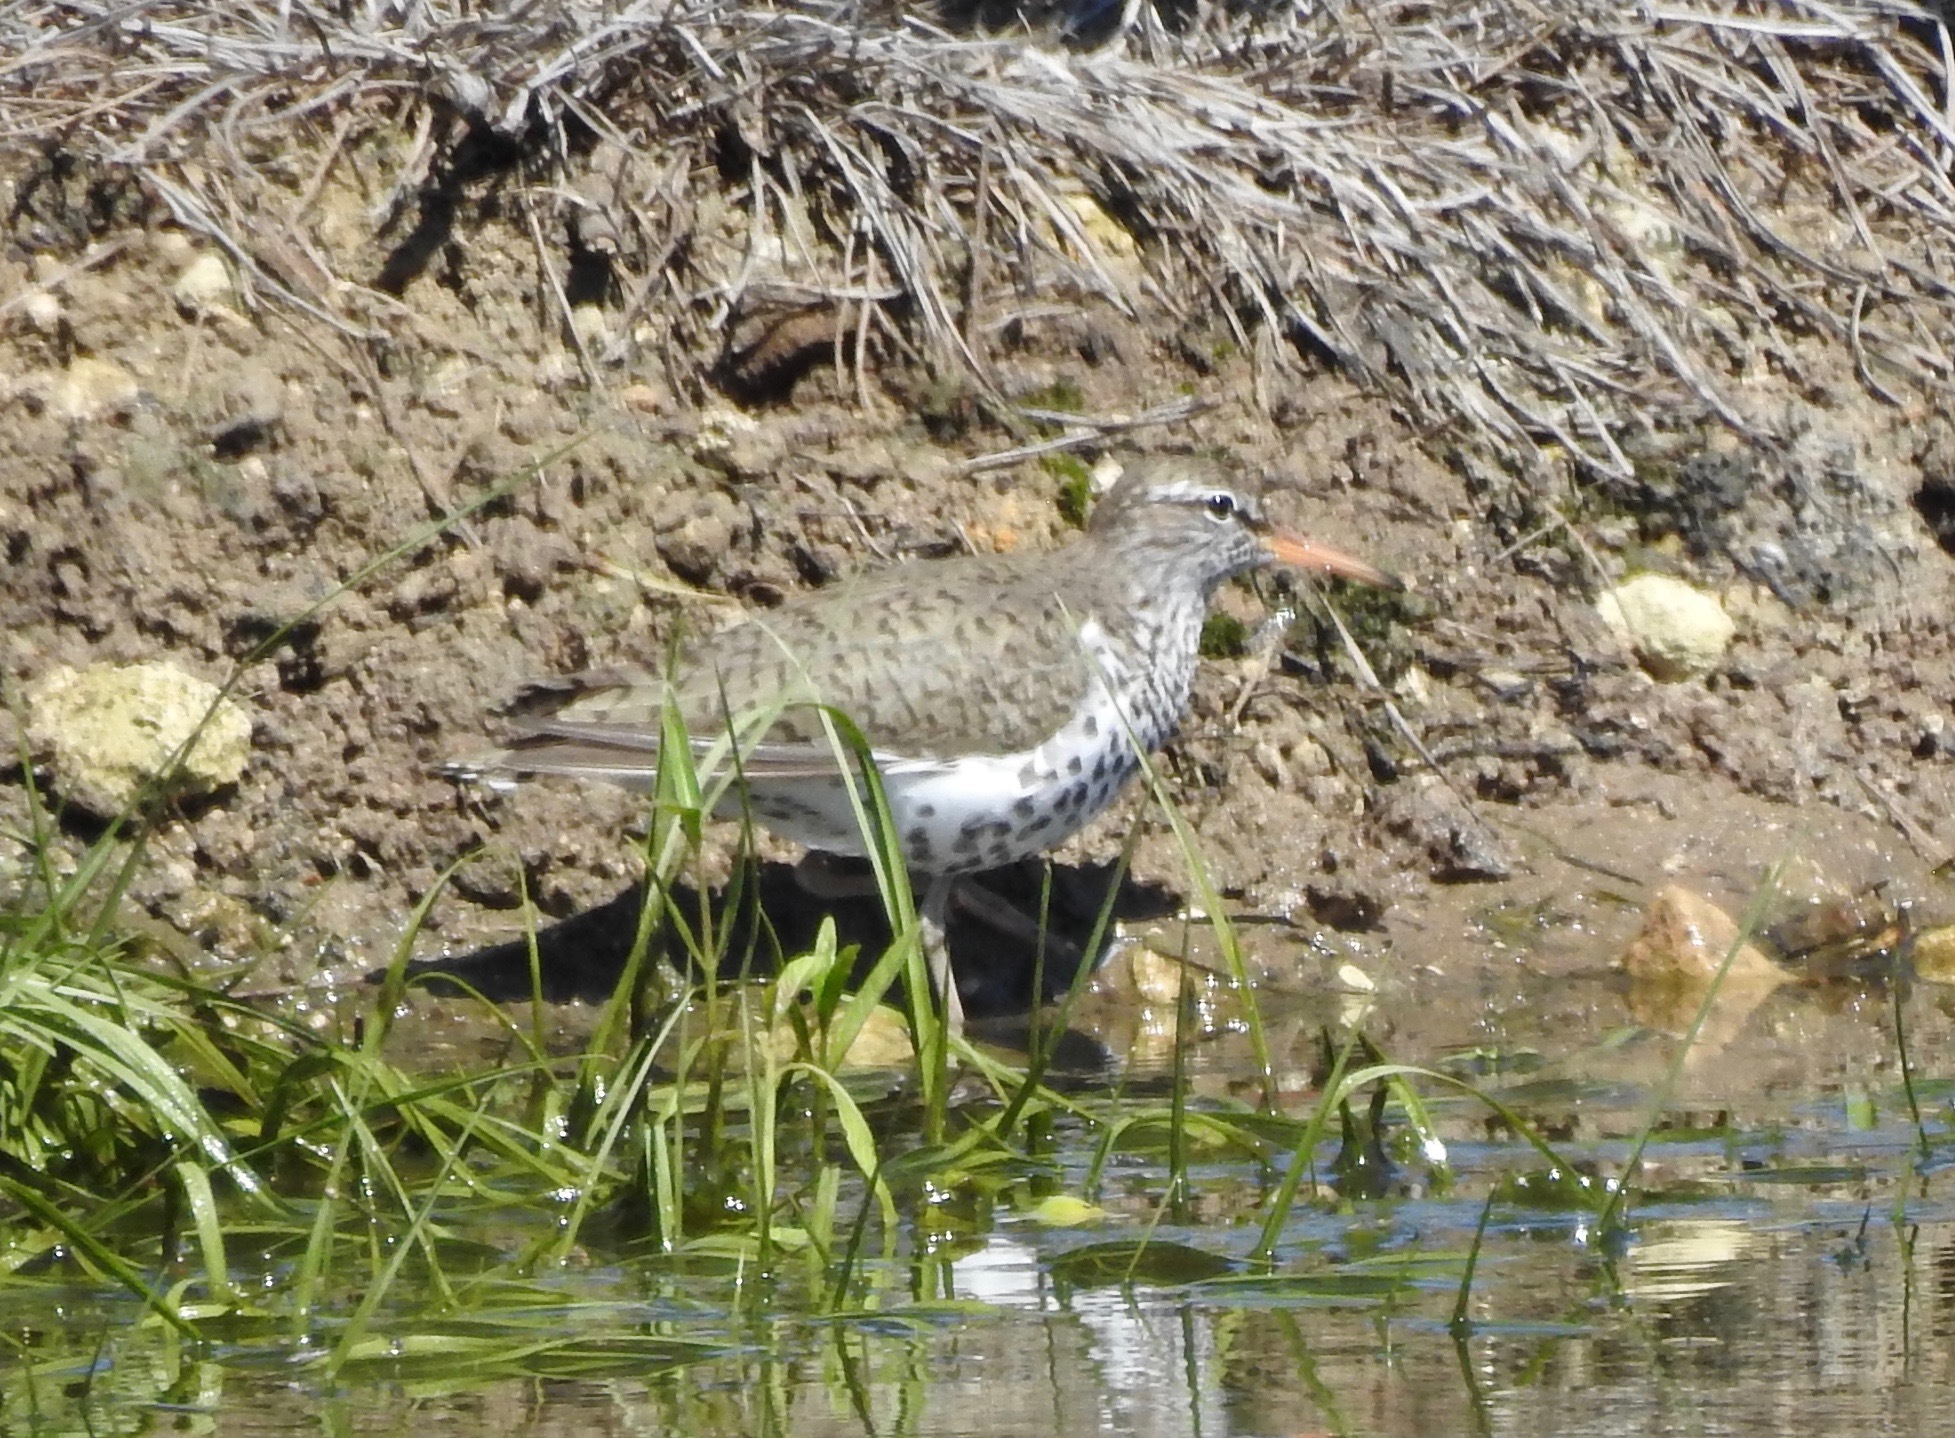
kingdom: Animalia
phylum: Chordata
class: Aves
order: Charadriiformes
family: Scolopacidae
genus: Actitis
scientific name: Actitis macularius
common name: Spotted sandpiper
